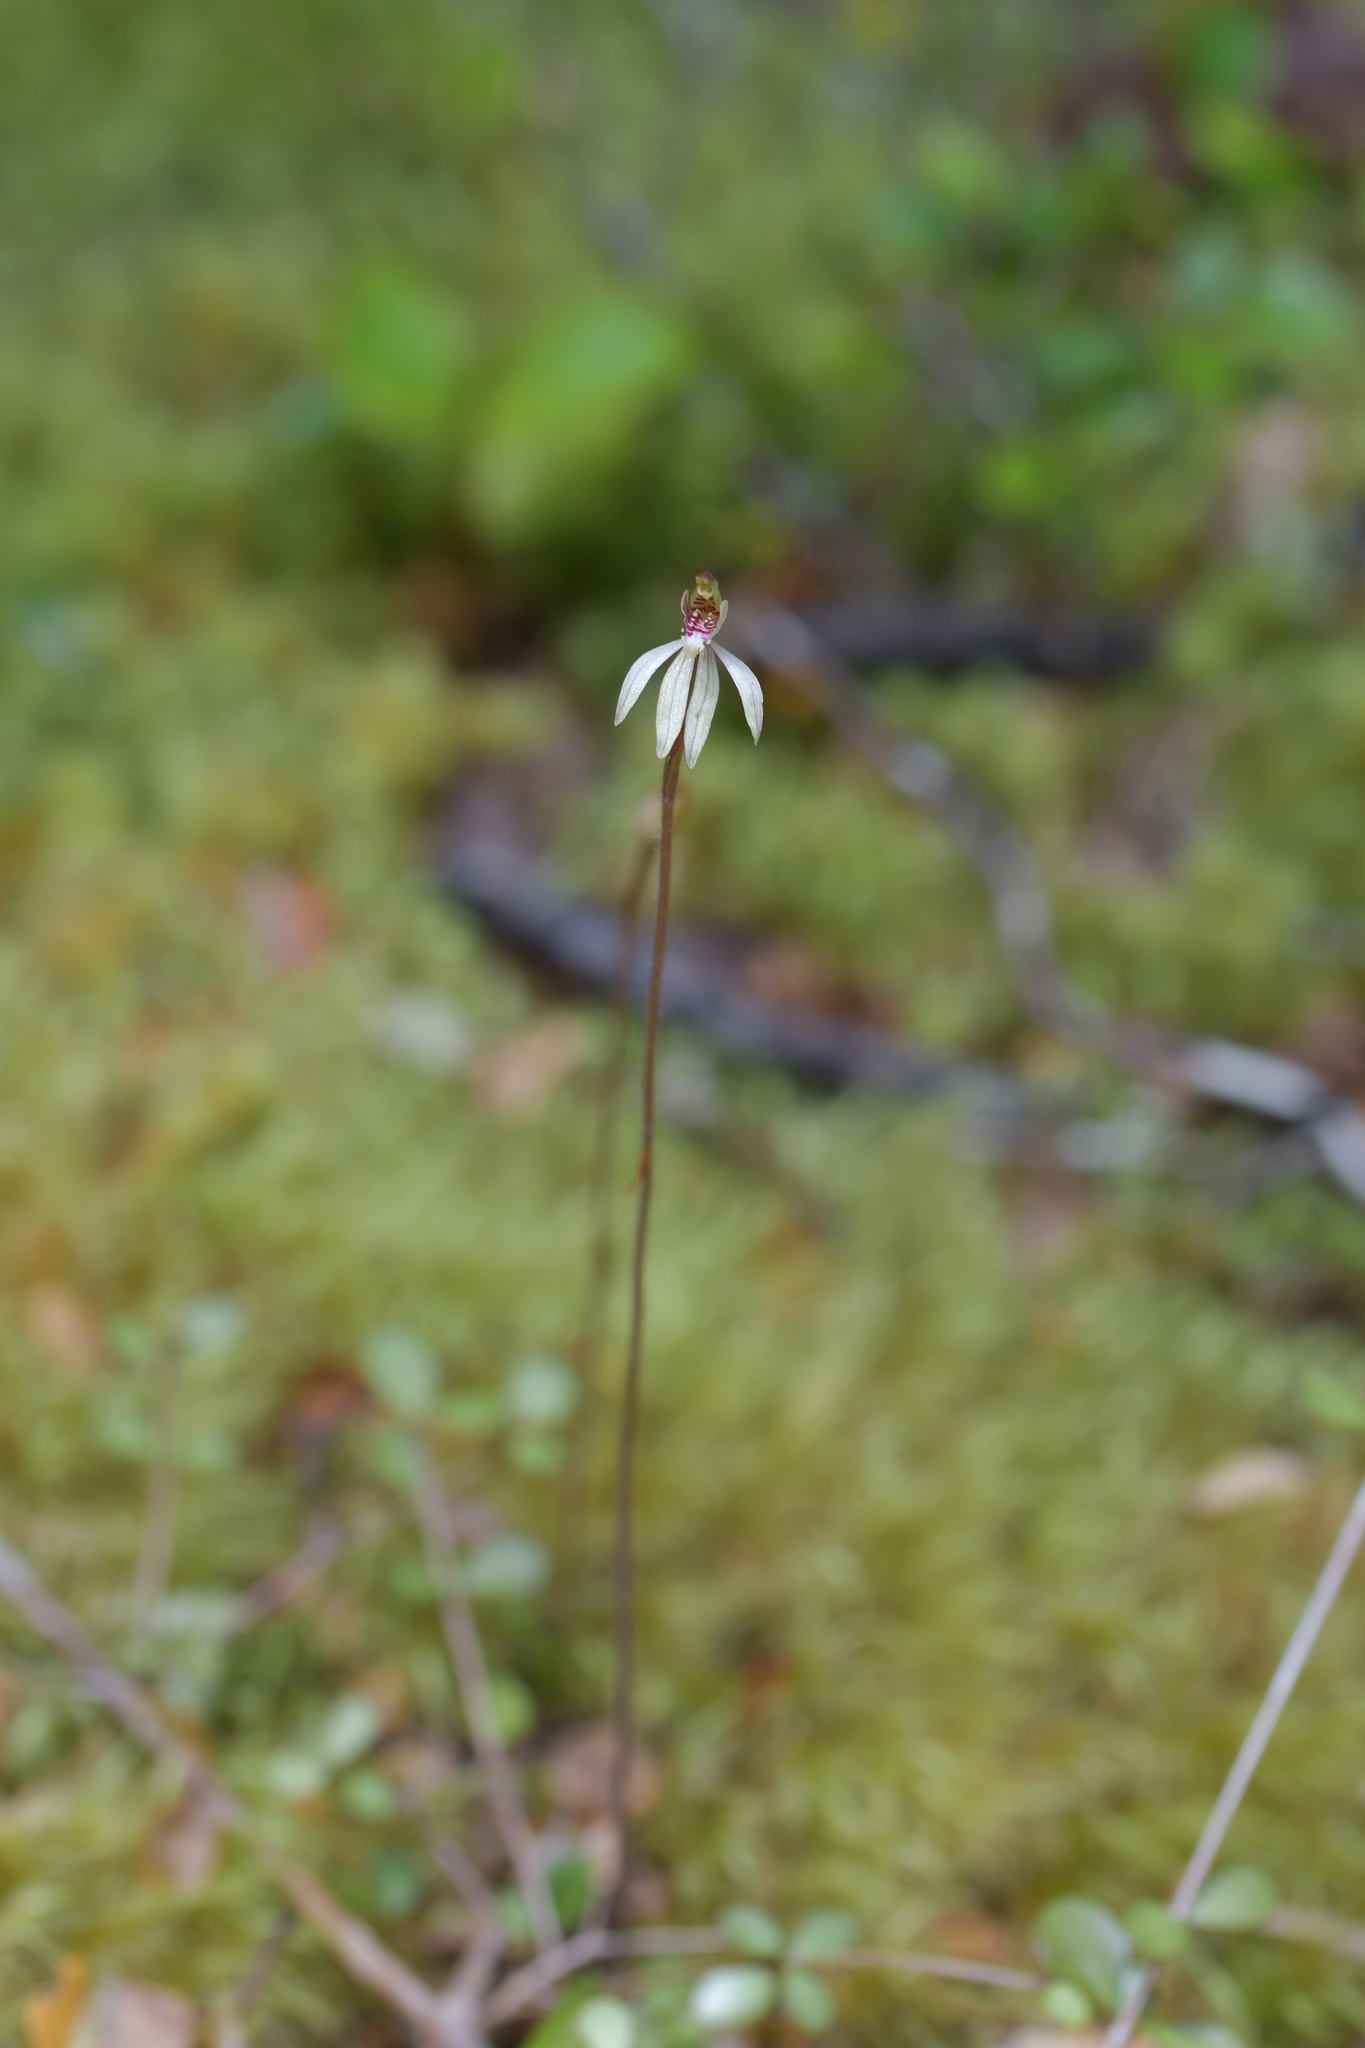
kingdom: Plantae
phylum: Tracheophyta
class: Liliopsida
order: Asparagales
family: Orchidaceae
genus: Caladenia
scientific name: Caladenia chlorostyla
